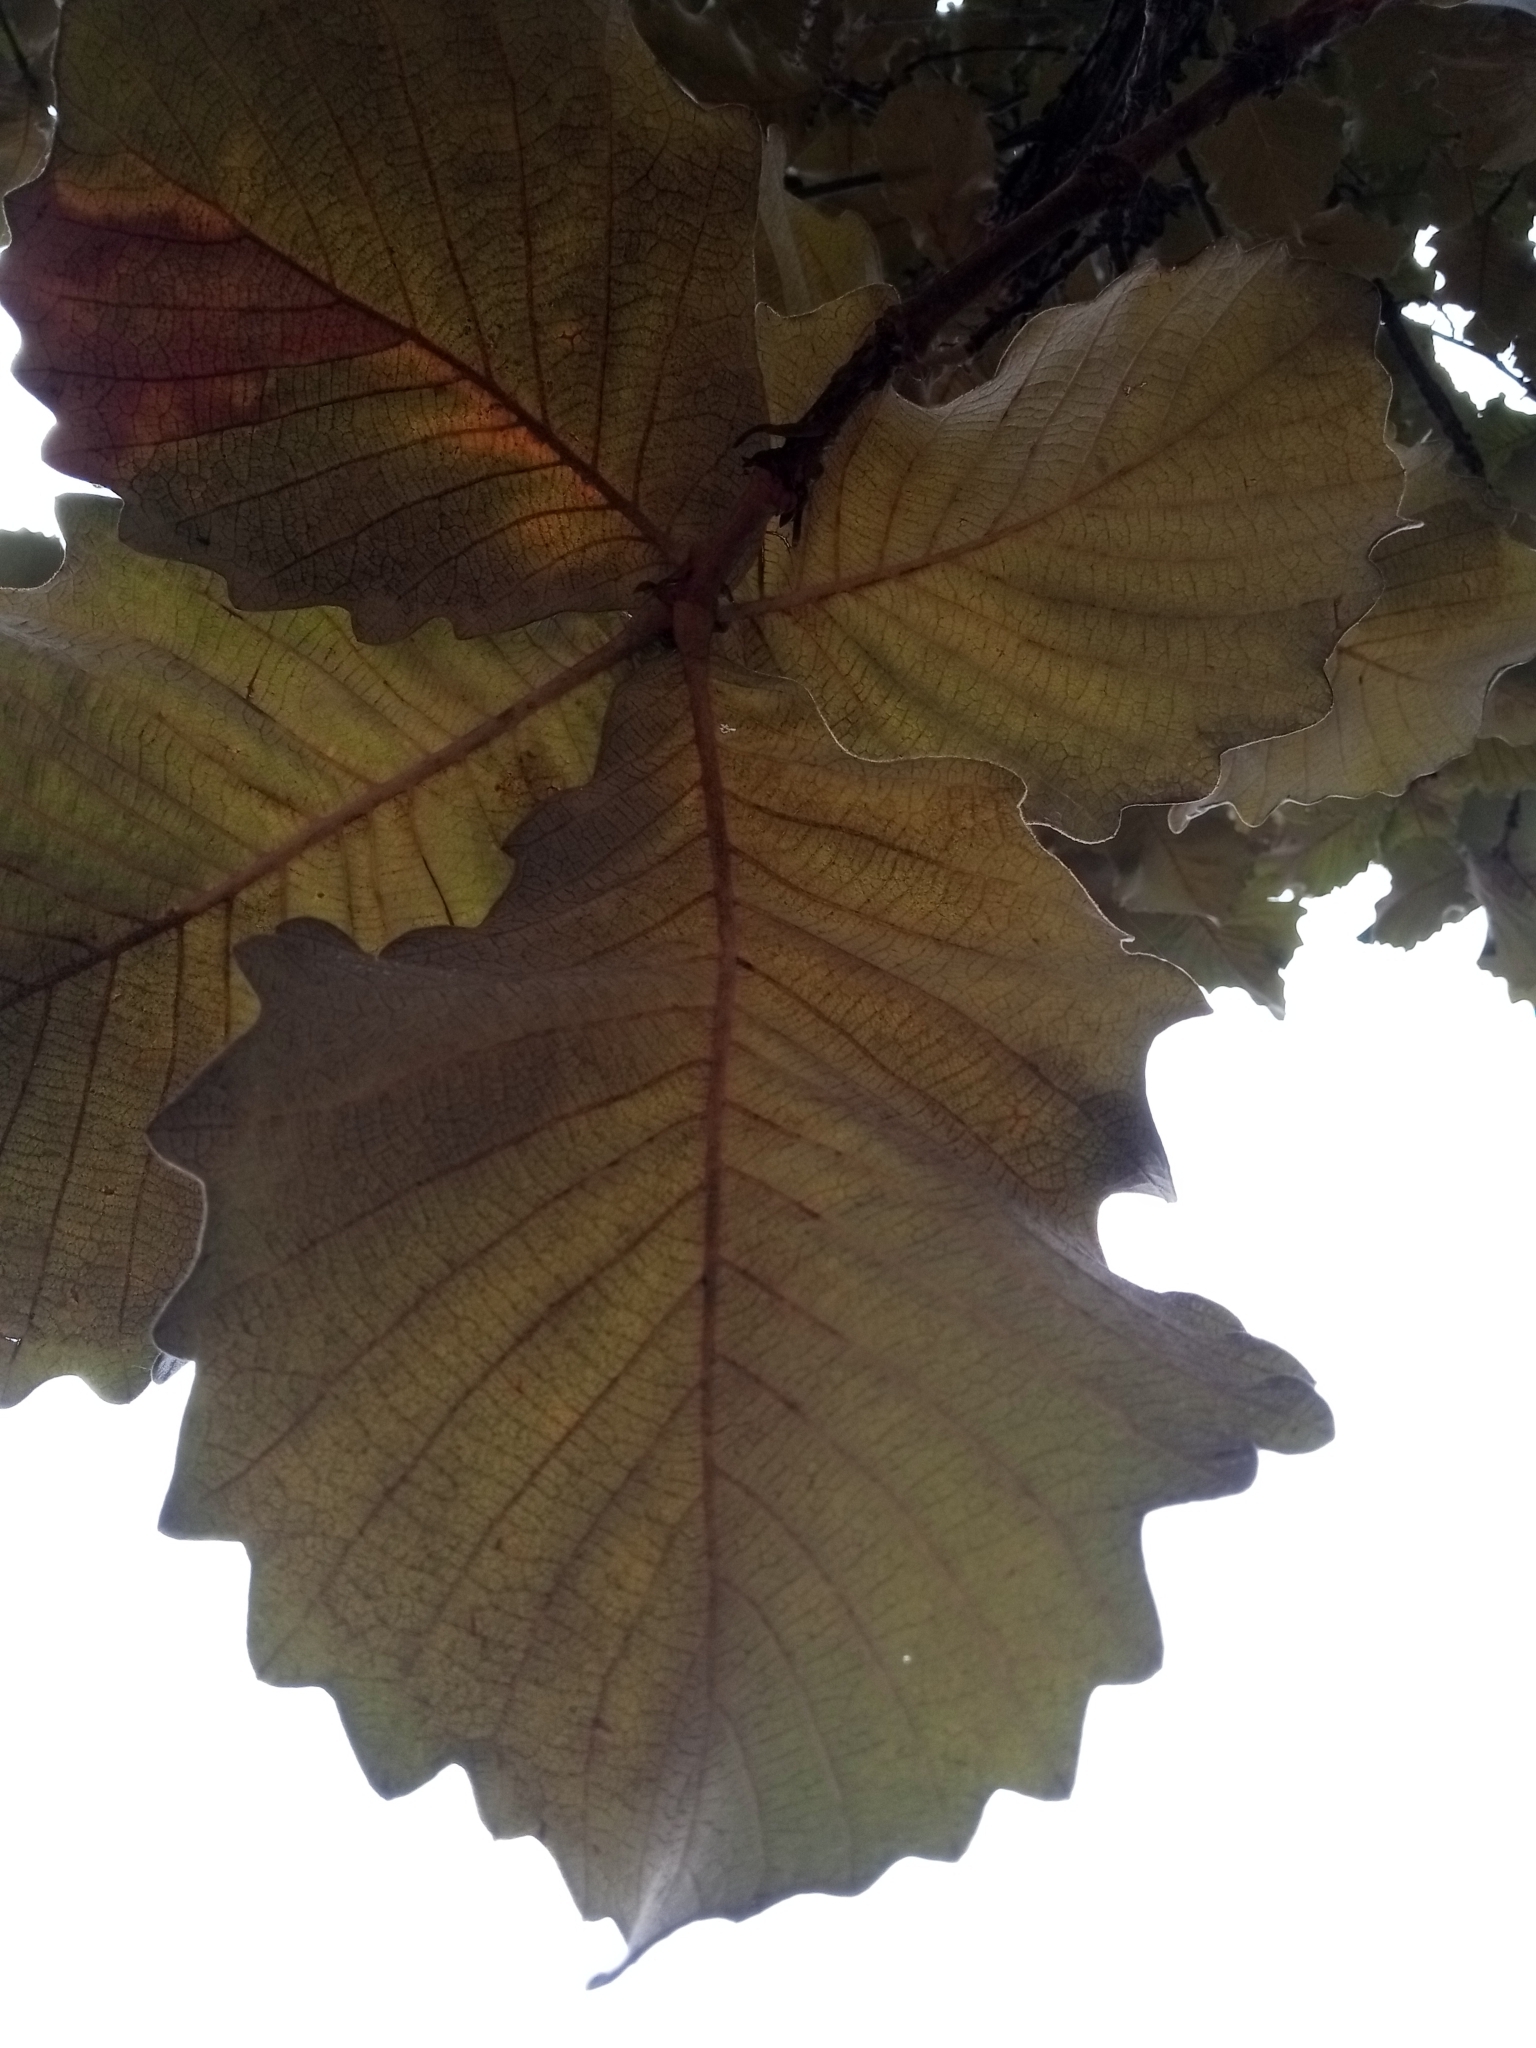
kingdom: Plantae
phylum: Tracheophyta
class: Magnoliopsida
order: Fagales
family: Fagaceae
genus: Quercus
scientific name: Quercus resinosa
